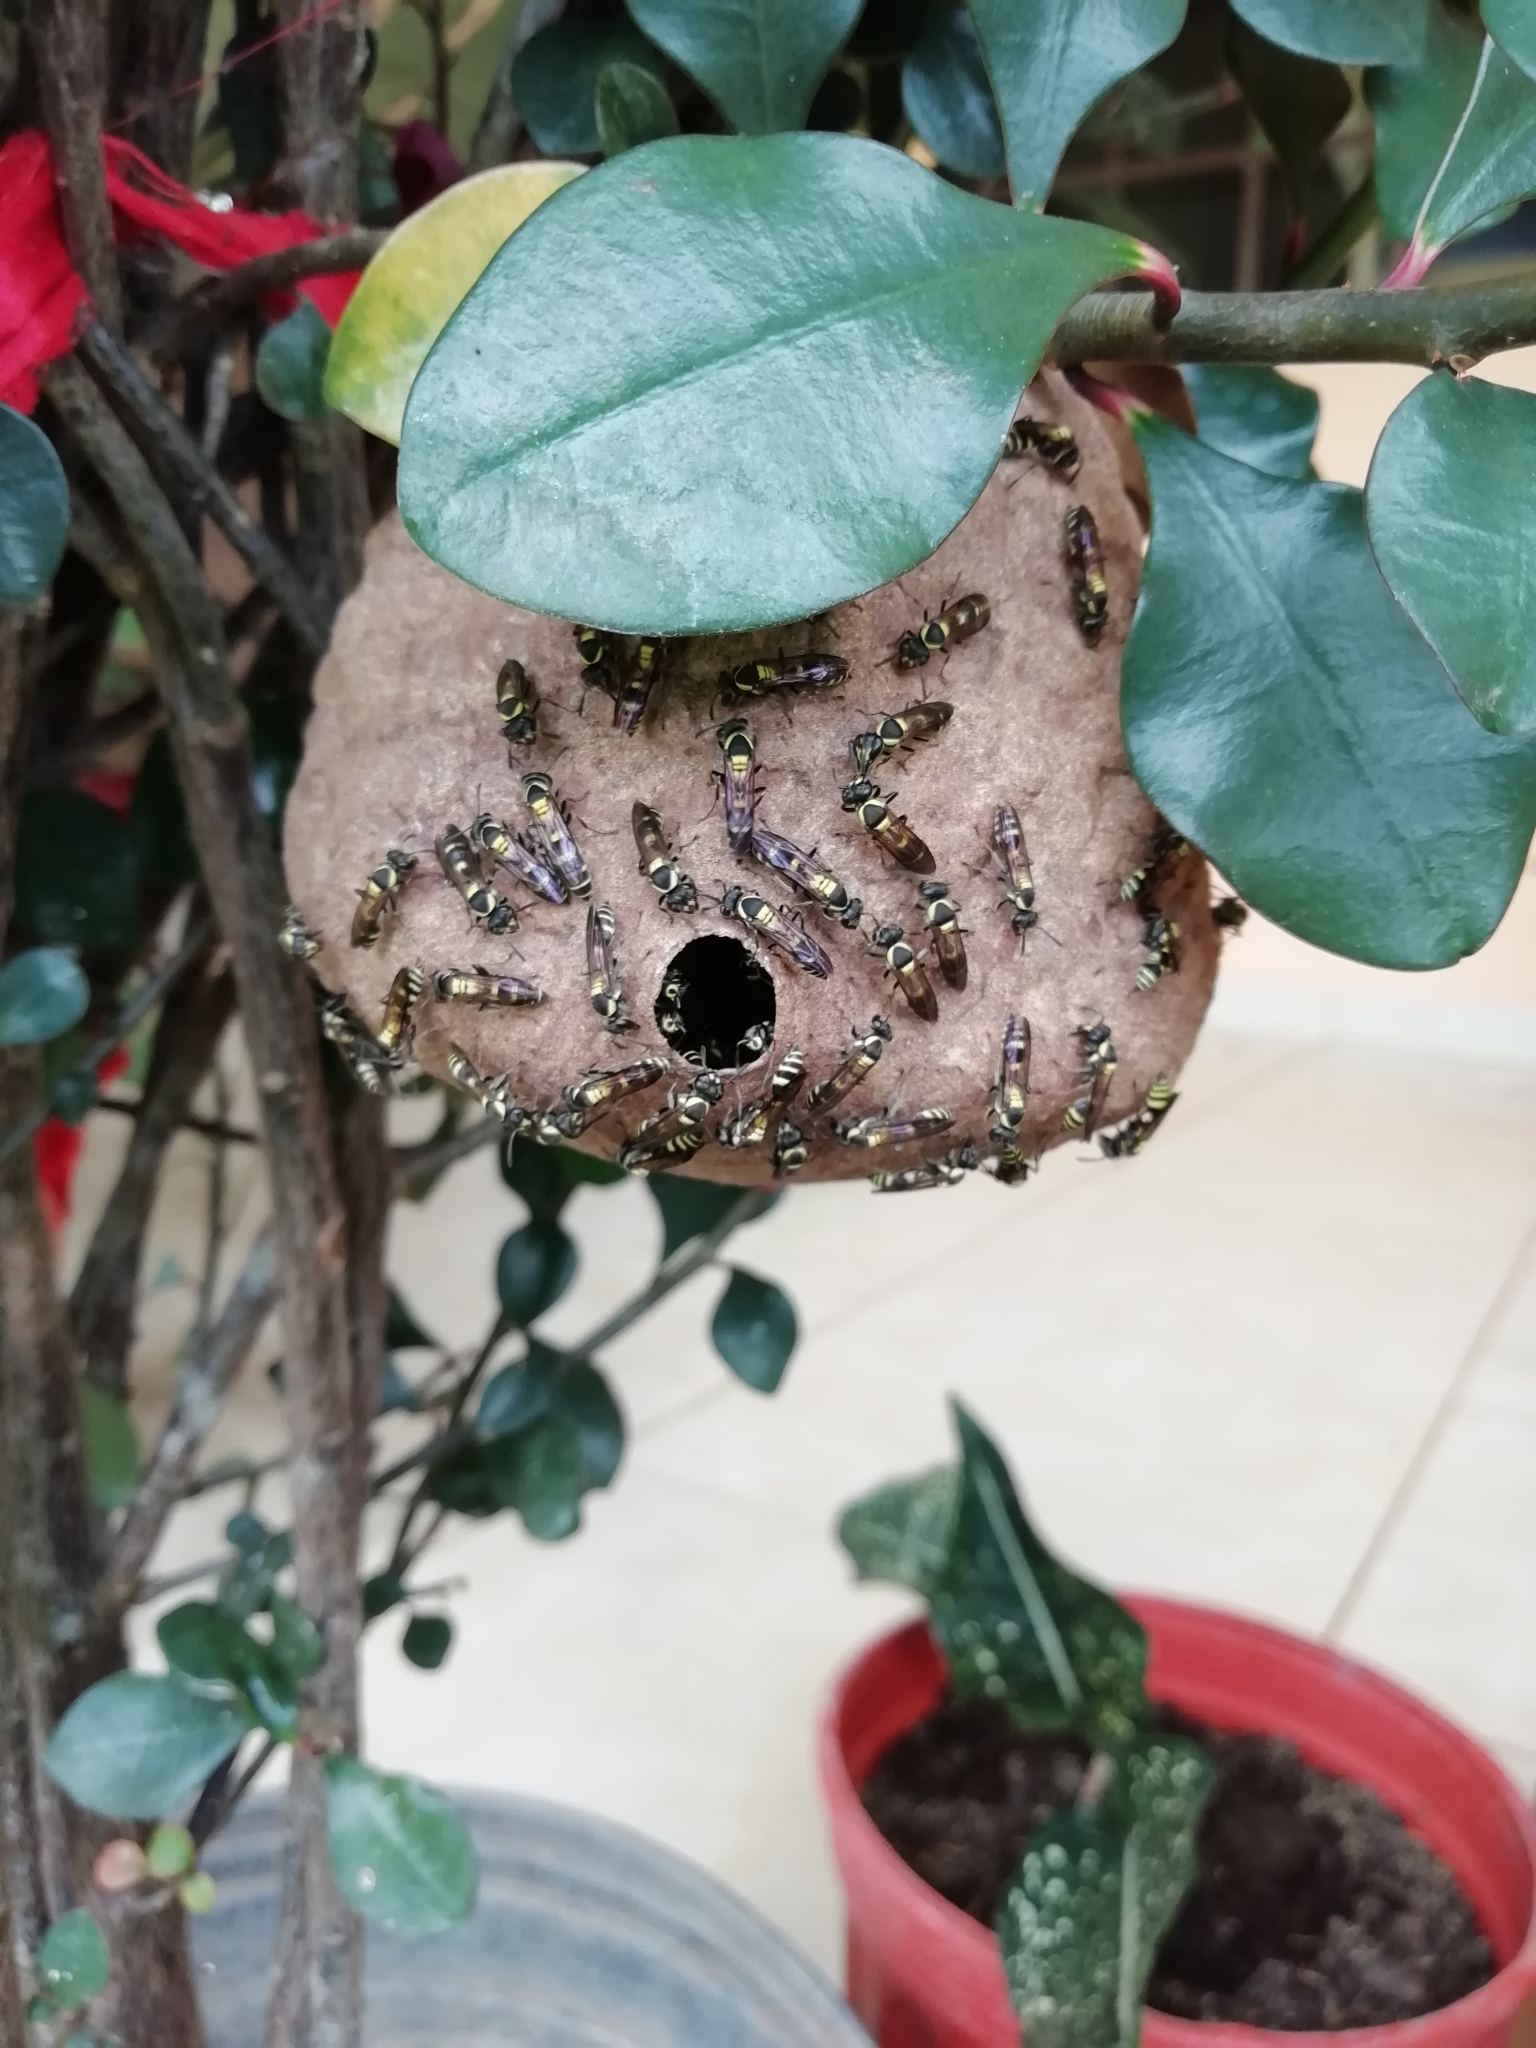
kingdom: Animalia
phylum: Arthropoda
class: Insecta
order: Hymenoptera
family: Eumenidae
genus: Polybia
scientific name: Polybia occidentalis
